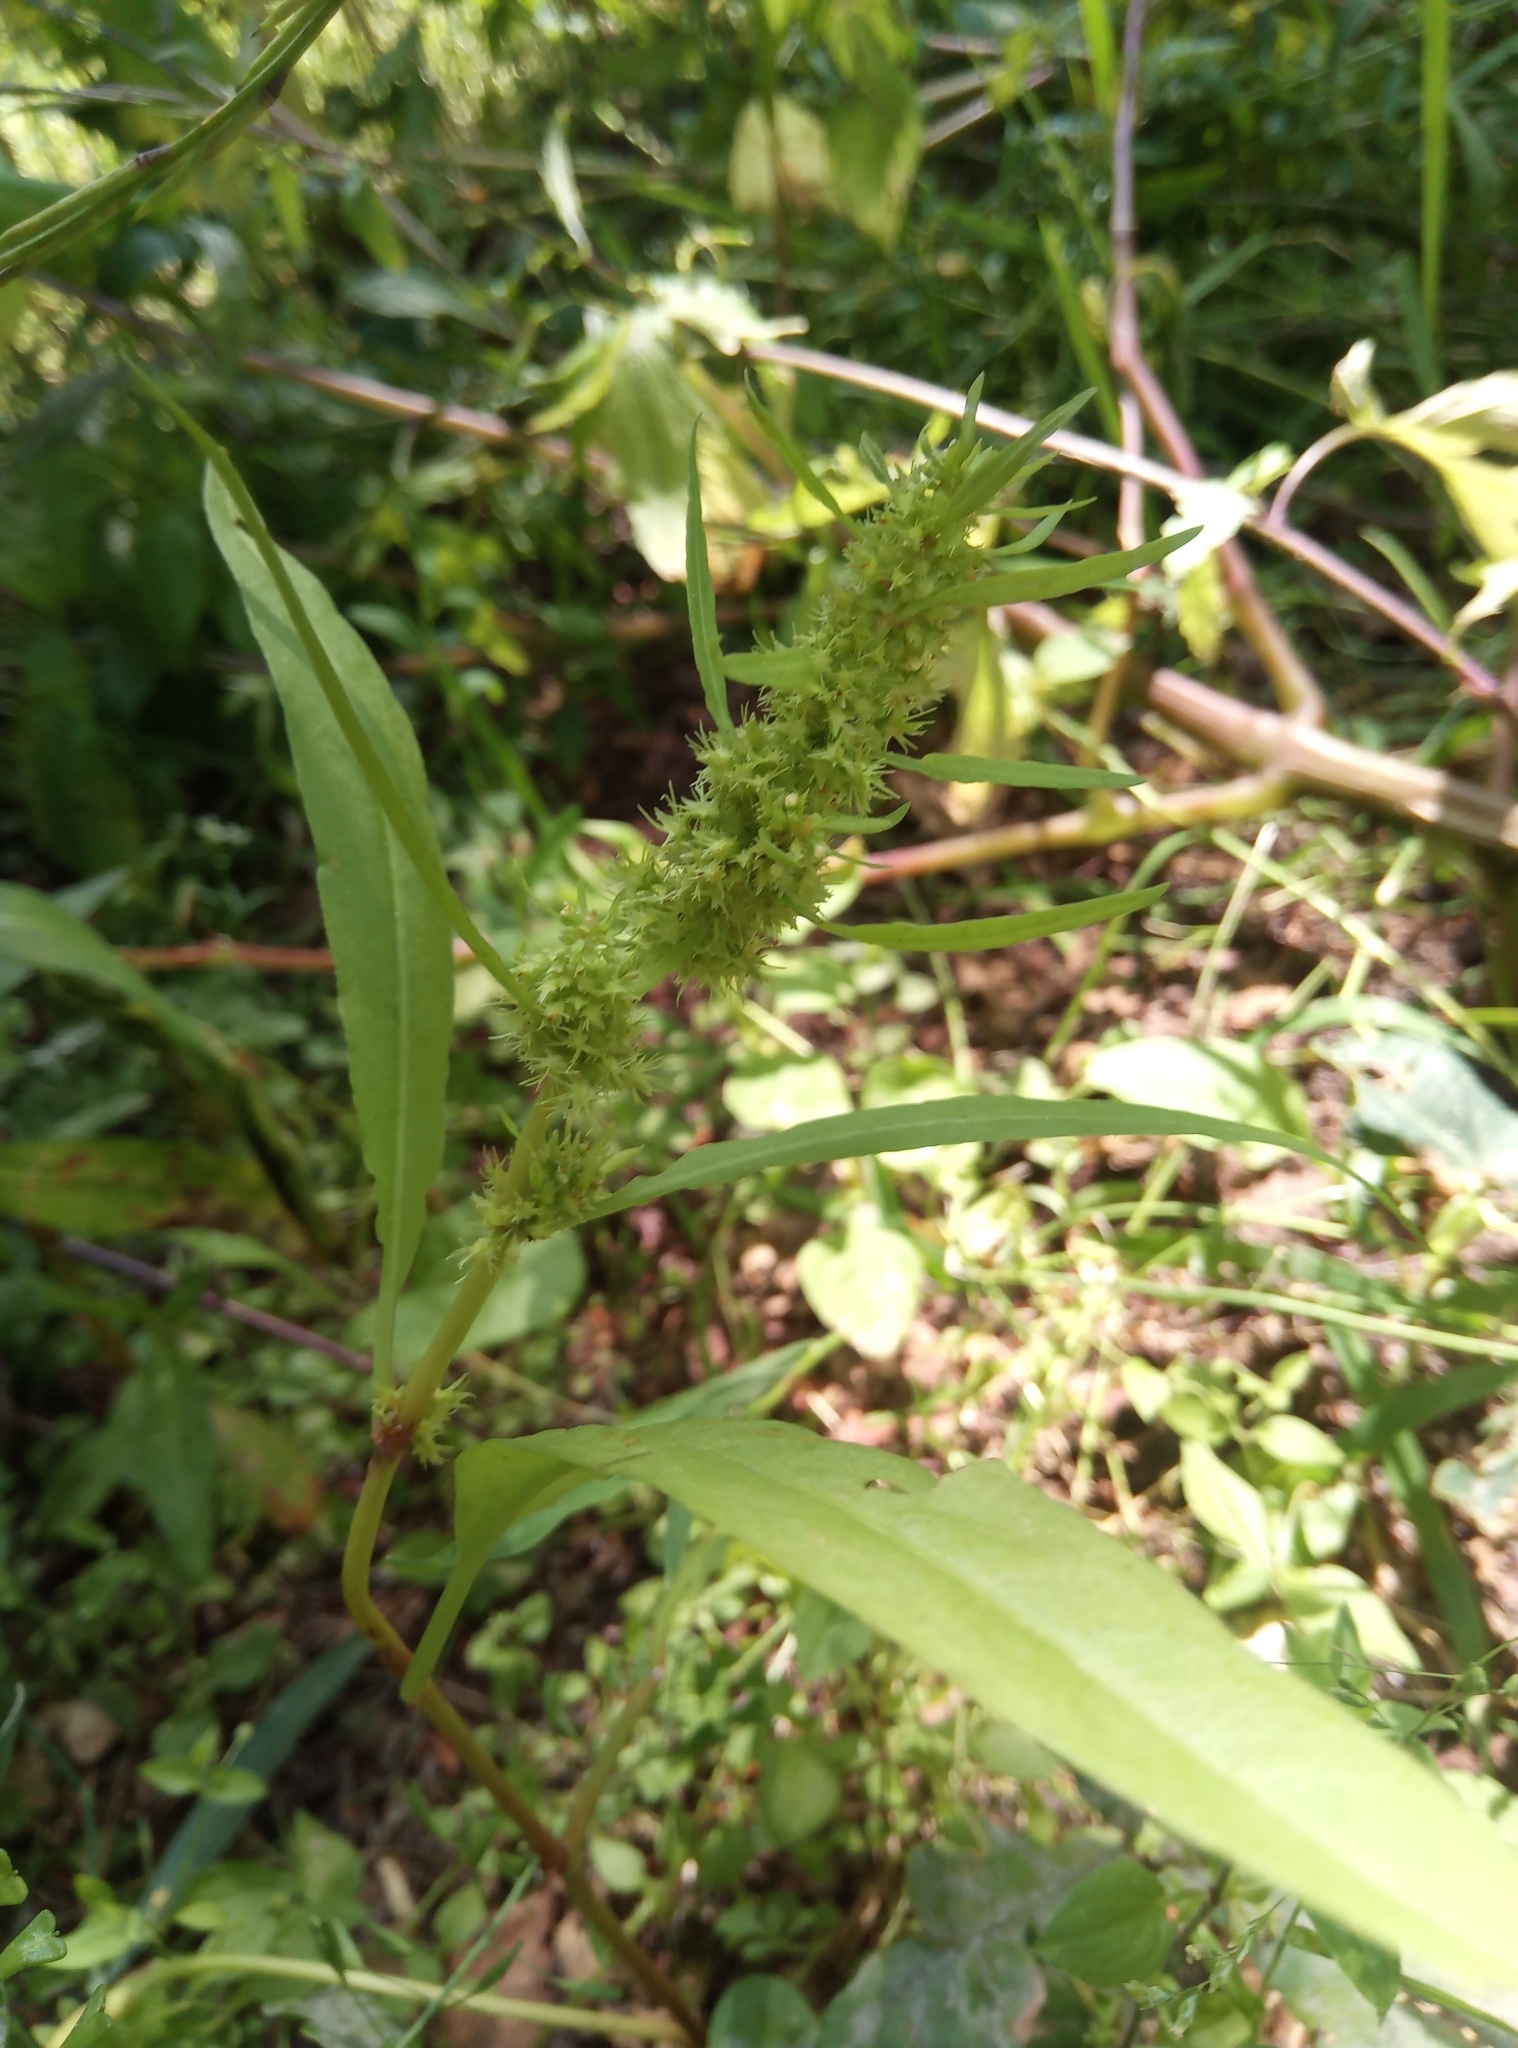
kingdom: Plantae
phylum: Tracheophyta
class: Magnoliopsida
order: Caryophyllales
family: Polygonaceae
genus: Rumex
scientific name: Rumex maritimus
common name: Golden dock
